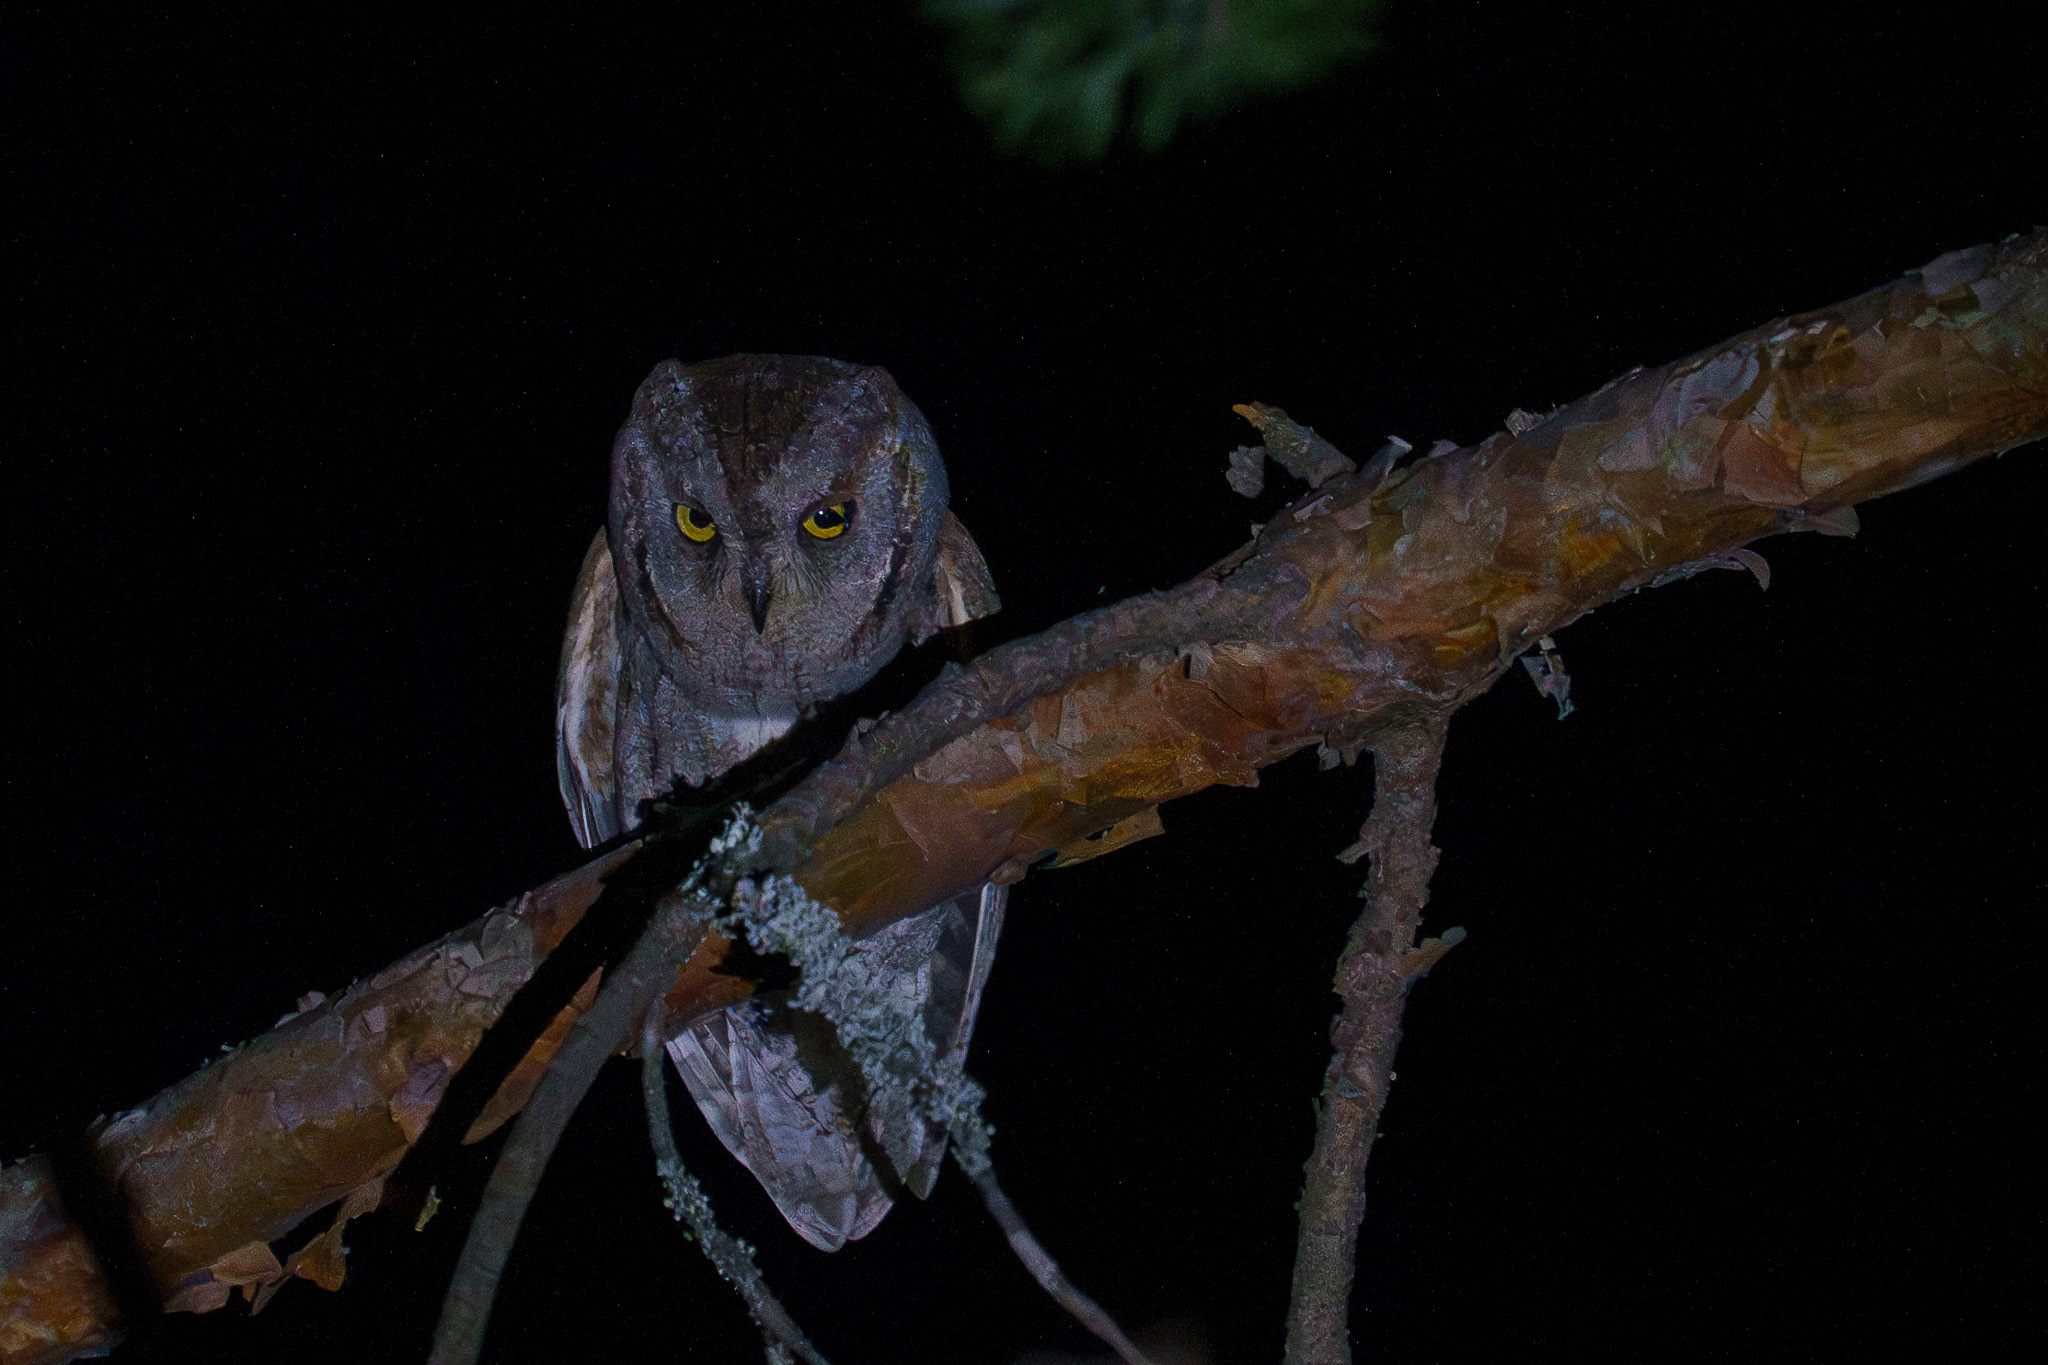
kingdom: Animalia
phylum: Chordata
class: Aves
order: Strigiformes
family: Strigidae
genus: Otus
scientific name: Otus scops
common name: Eurasian scops owl
